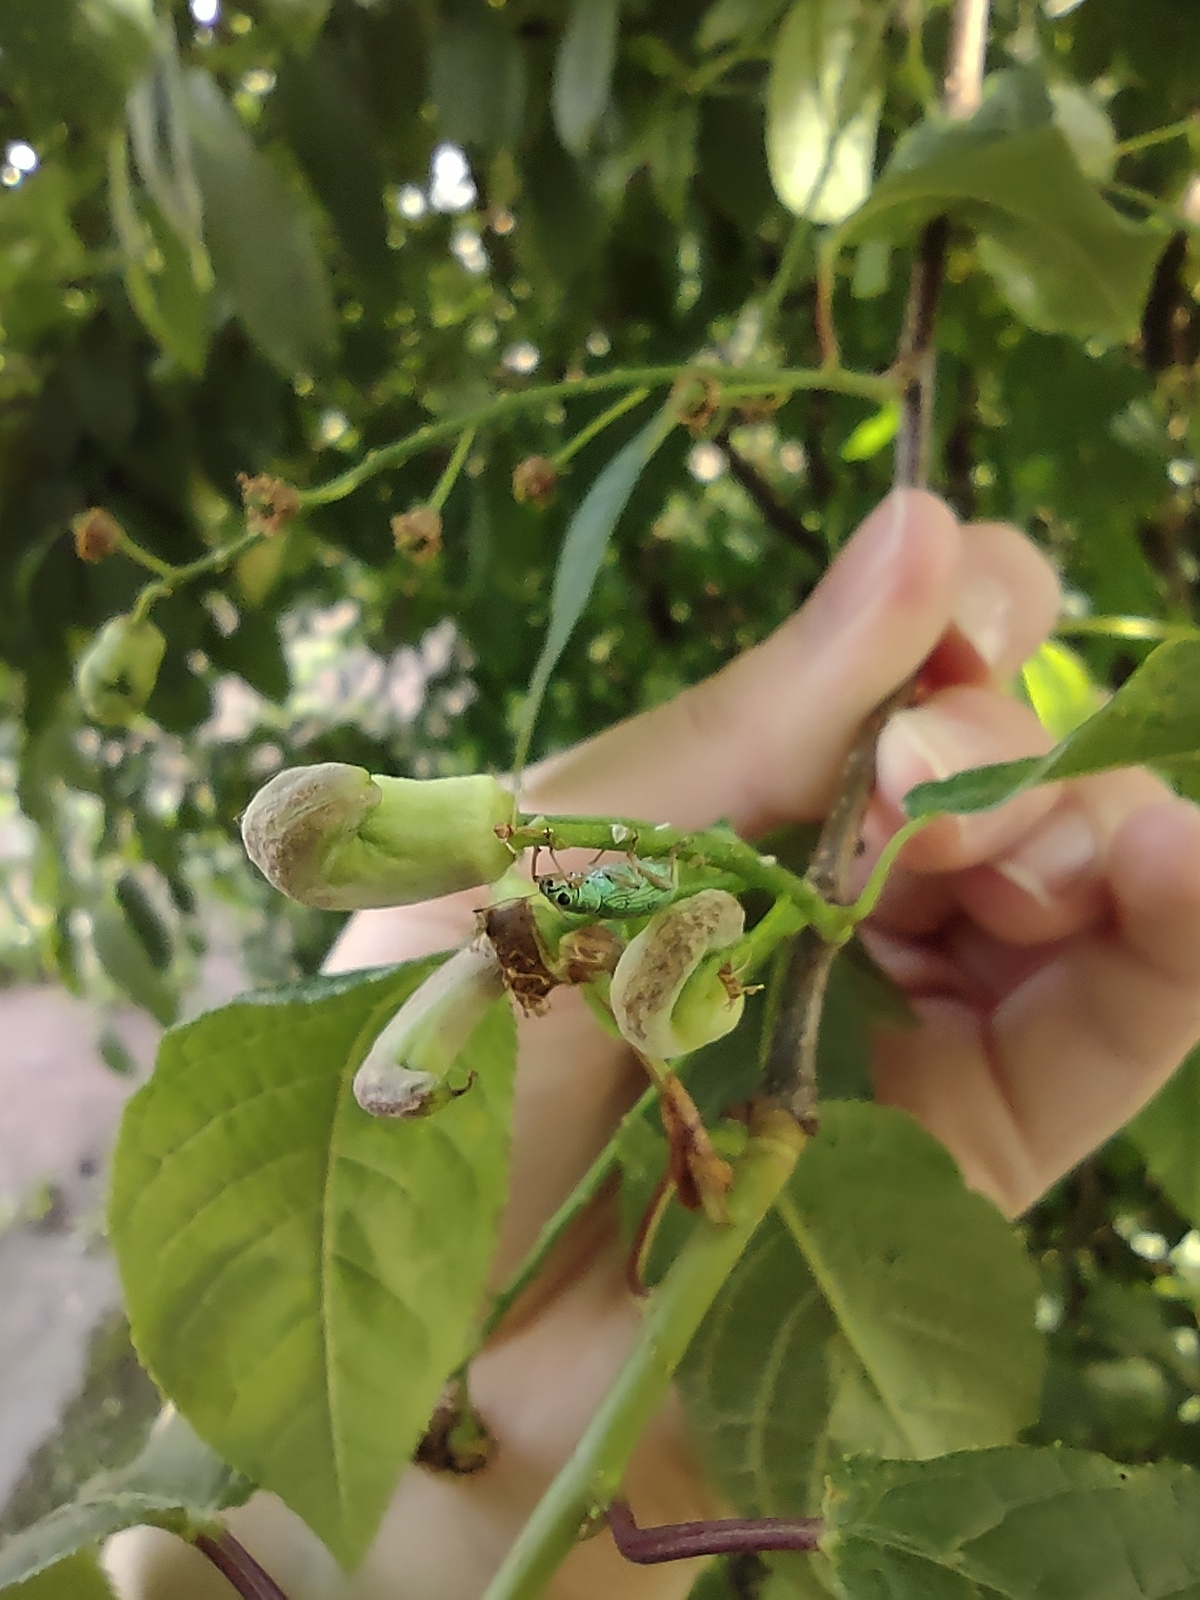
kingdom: Animalia
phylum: Arthropoda
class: Insecta
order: Coleoptera
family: Curculionidae
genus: Polydrusus
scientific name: Polydrusus formosus
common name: Weevil
